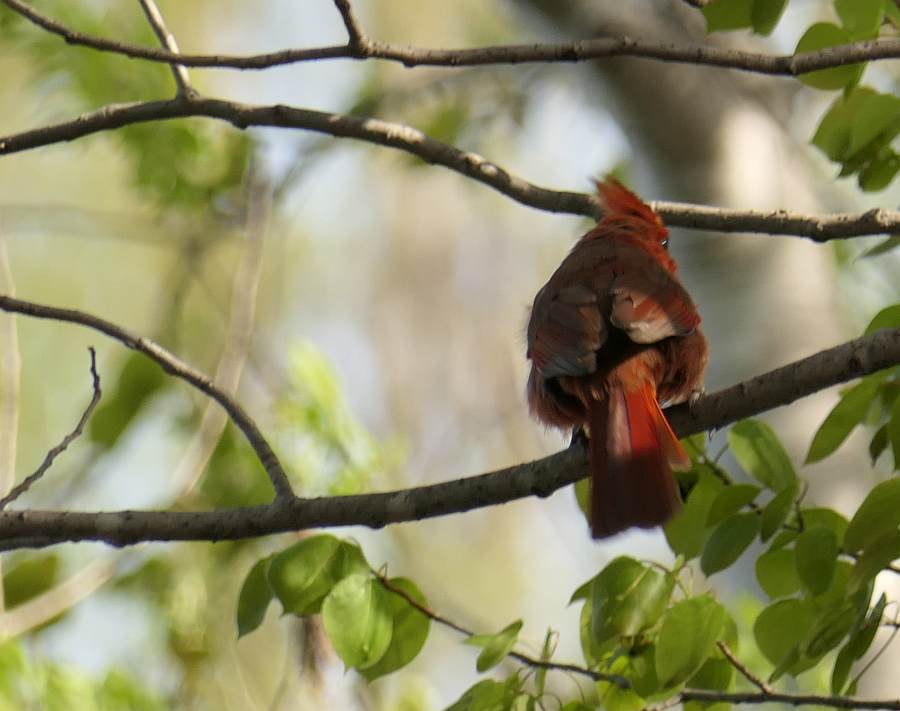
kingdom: Animalia
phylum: Chordata
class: Aves
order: Passeriformes
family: Cardinalidae
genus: Cardinalis
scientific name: Cardinalis cardinalis
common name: Northern cardinal
